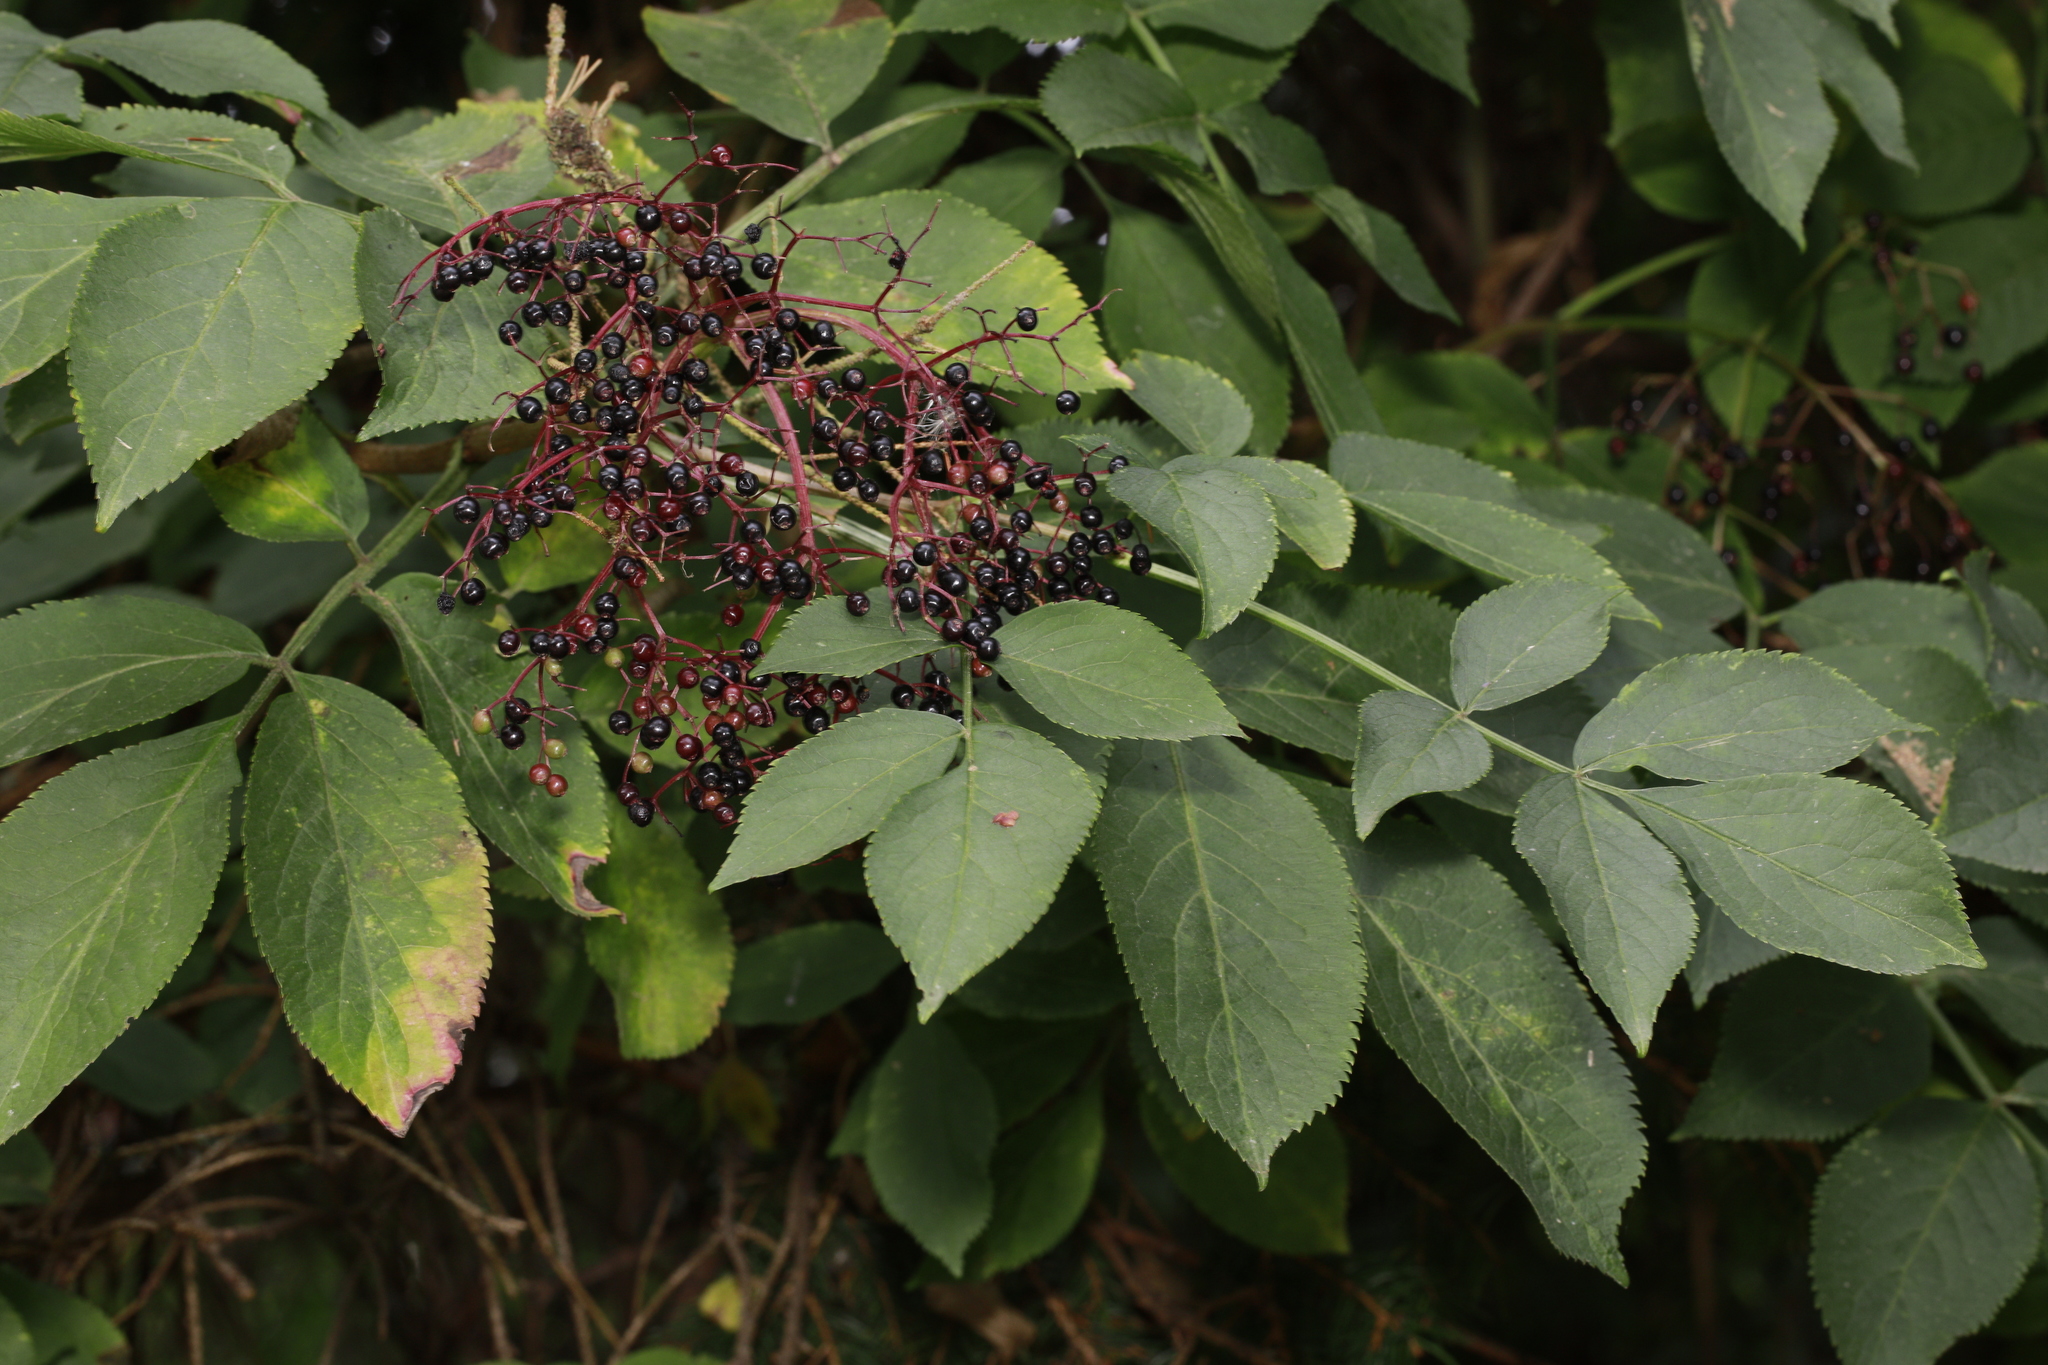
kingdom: Plantae
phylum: Tracheophyta
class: Magnoliopsida
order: Dipsacales
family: Viburnaceae
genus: Sambucus
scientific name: Sambucus nigra
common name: Elder
